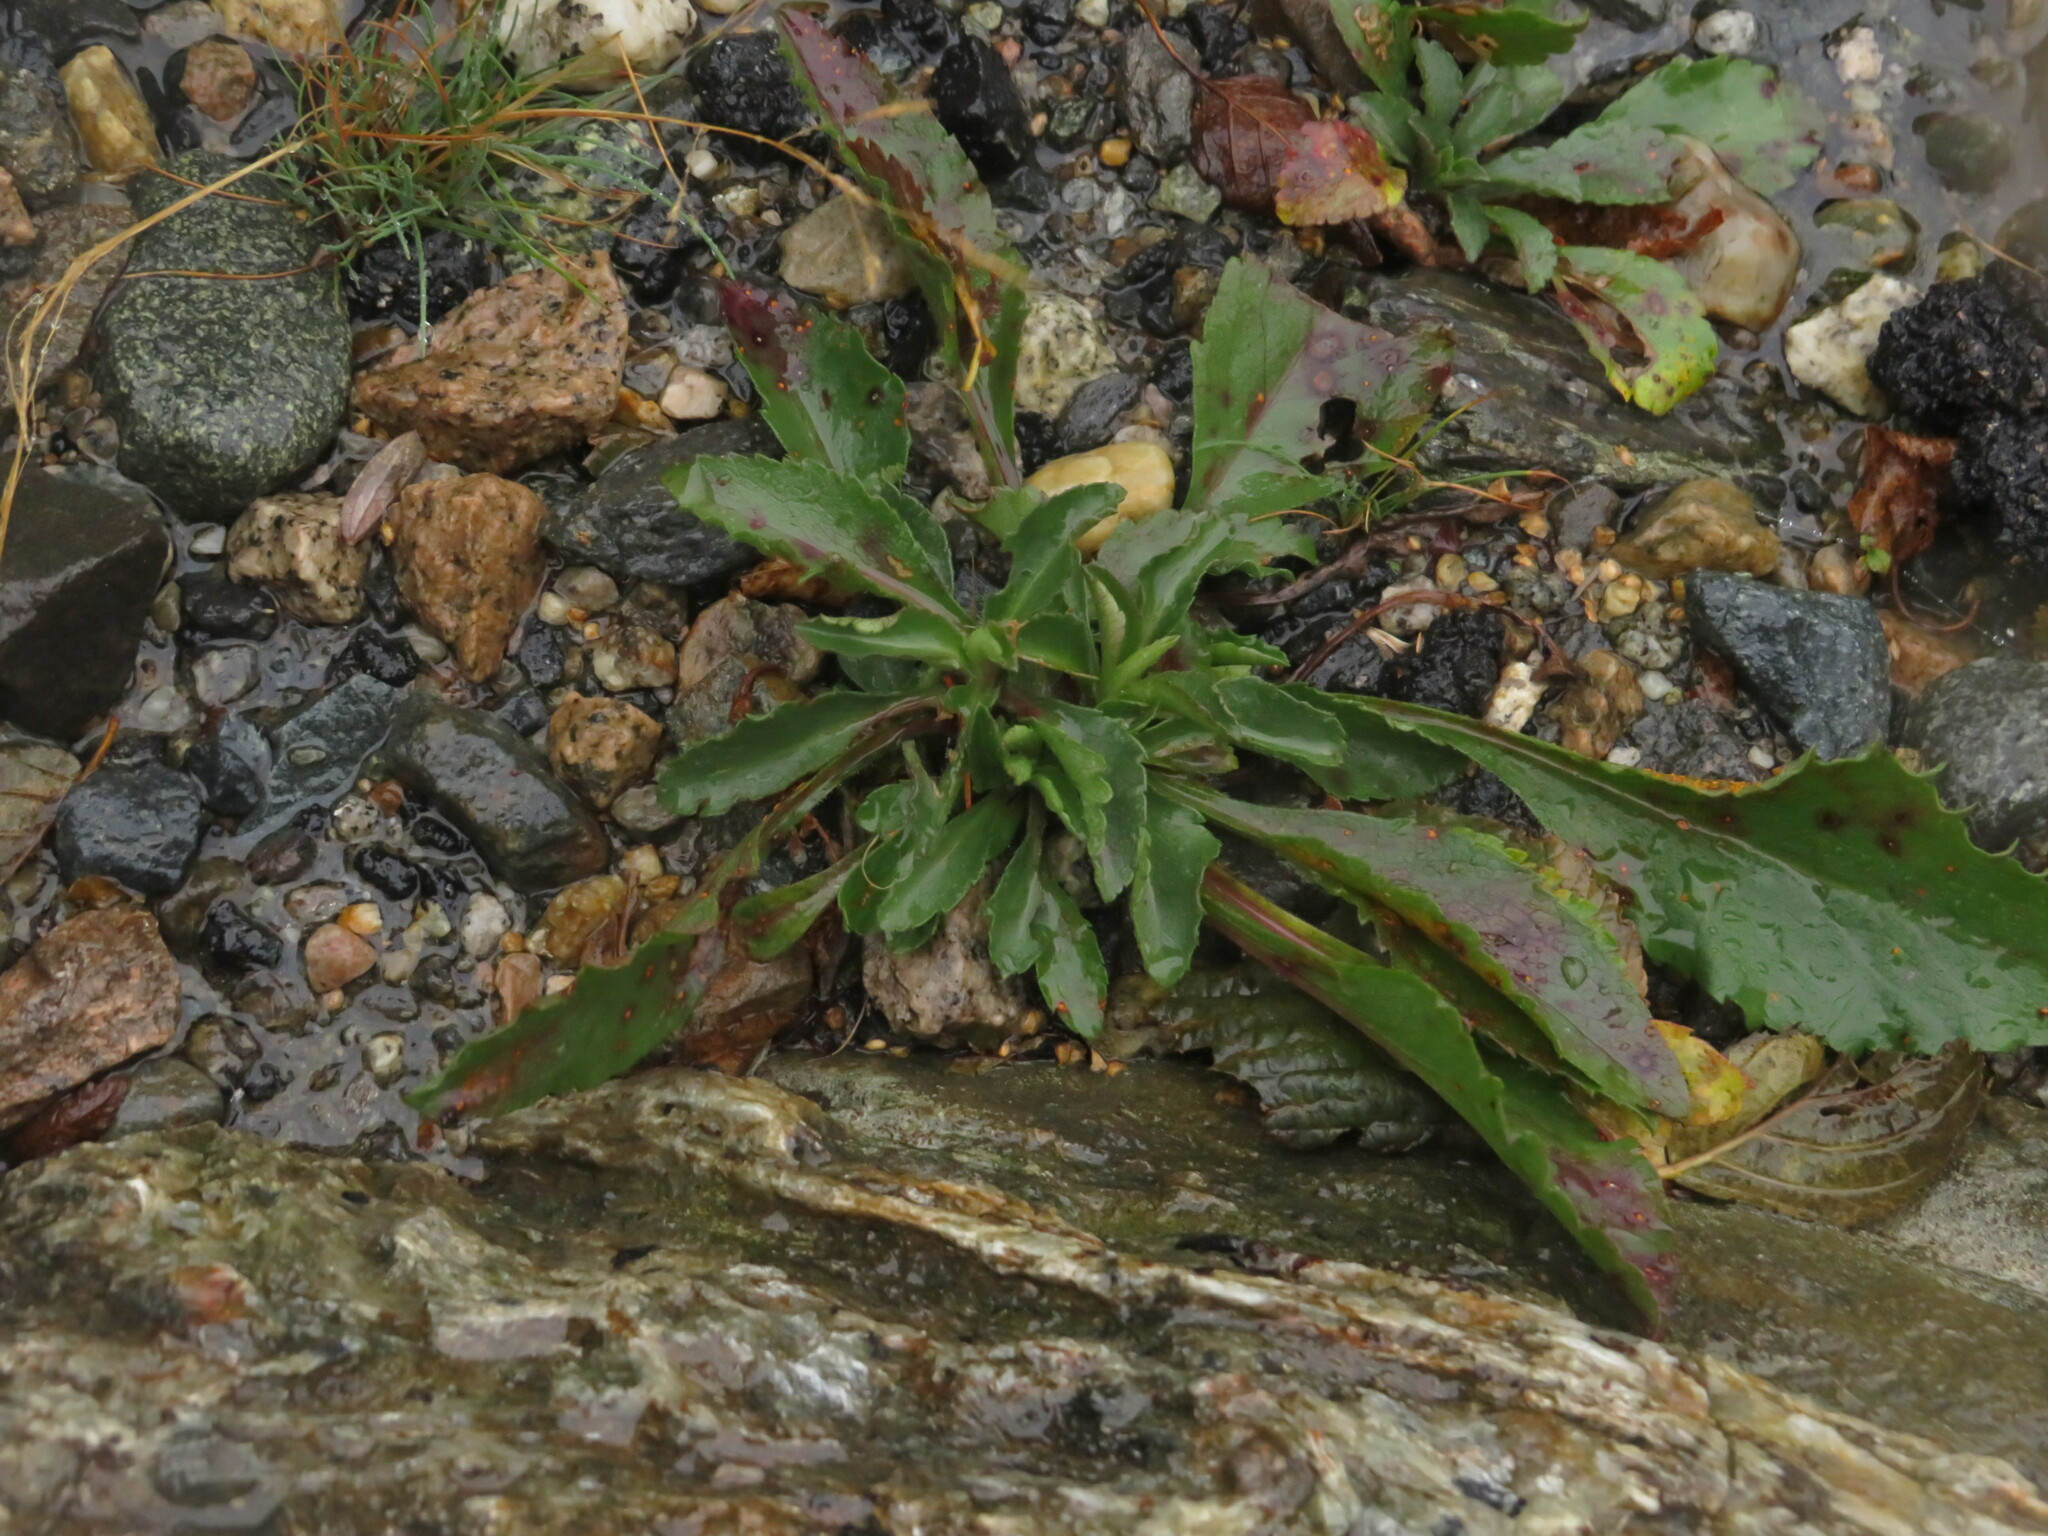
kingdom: Plantae
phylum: Tracheophyta
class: Magnoliopsida
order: Asterales
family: Asteraceae
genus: Solidago
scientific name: Solidago leiocarpa
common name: Cutler's alpine goldenrod
